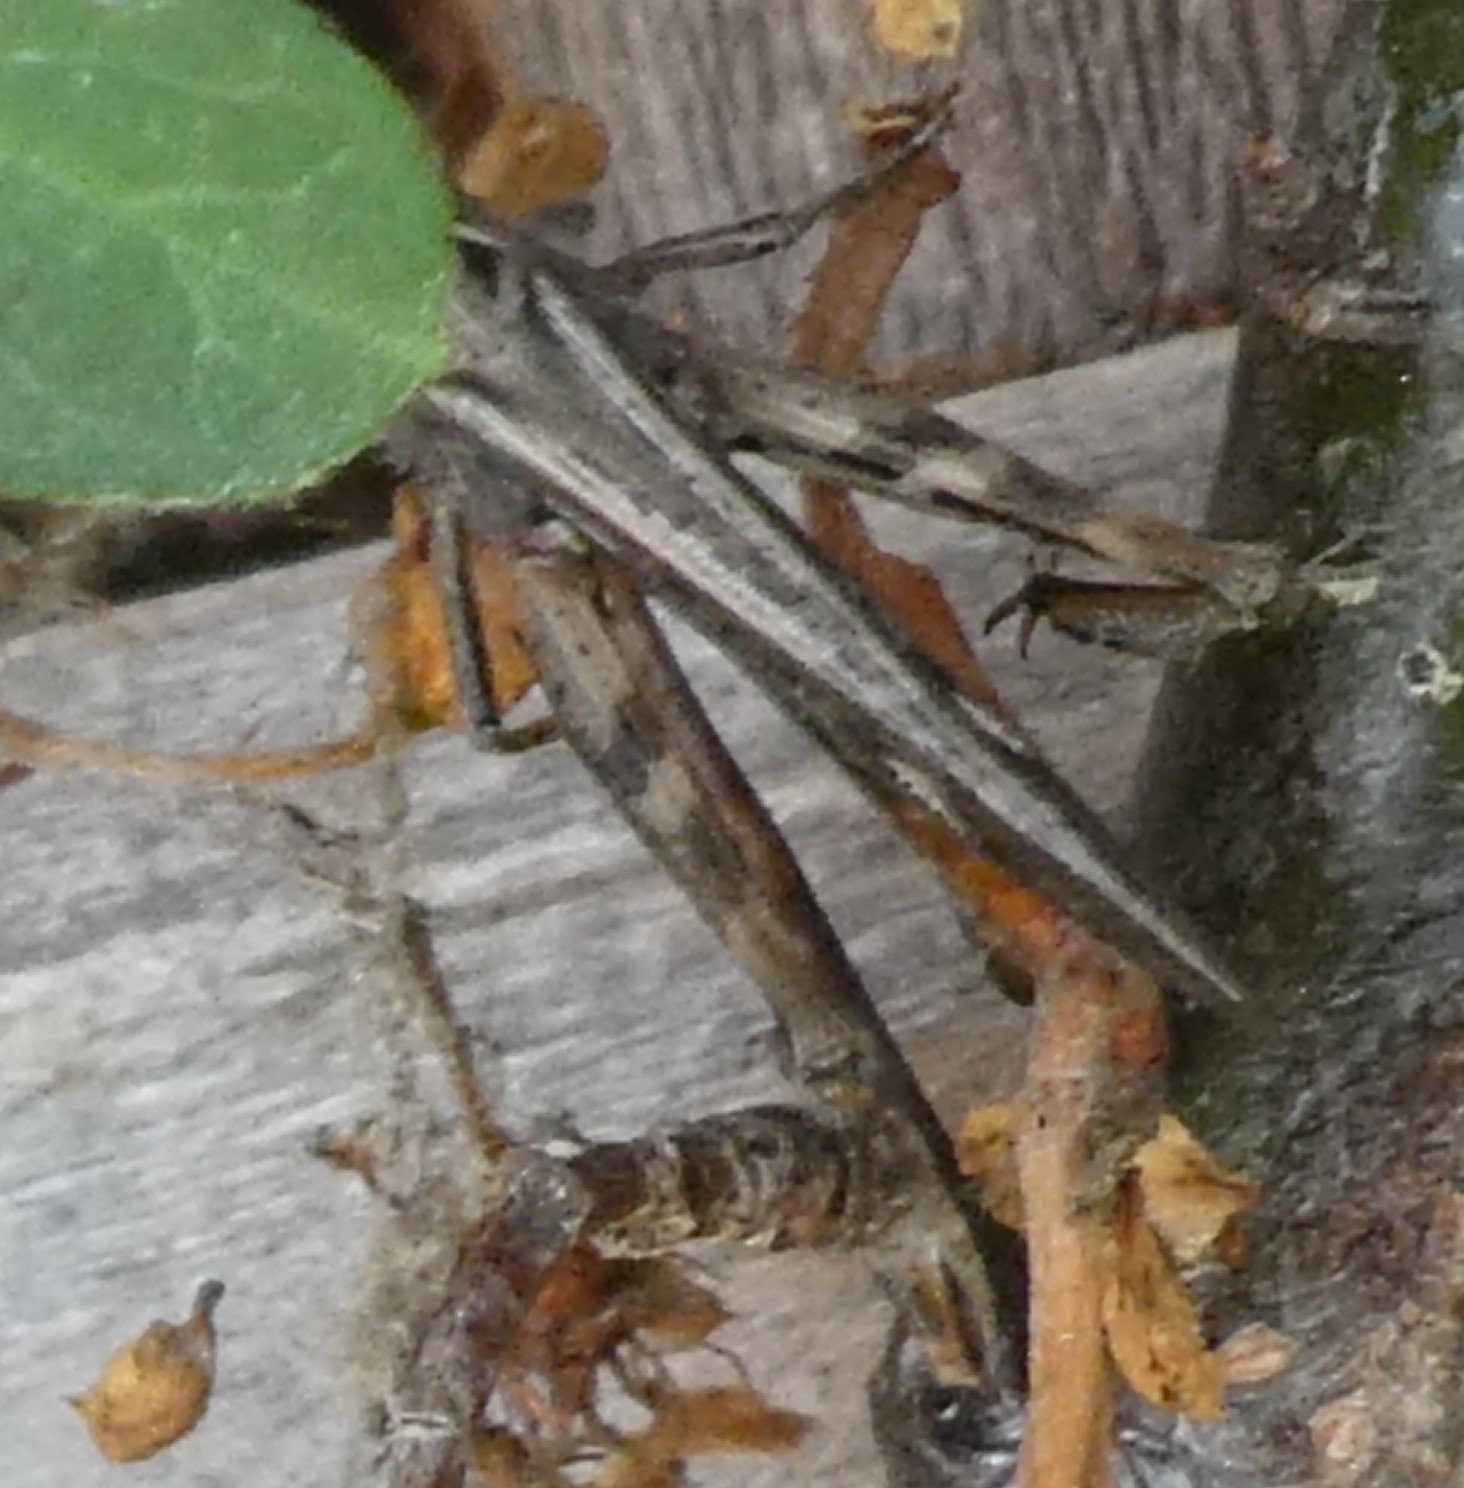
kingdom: Animalia
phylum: Arthropoda
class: Insecta
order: Orthoptera
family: Acrididae
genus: Chorthippus
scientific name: Chorthippus brunneus
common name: Field grasshopper
